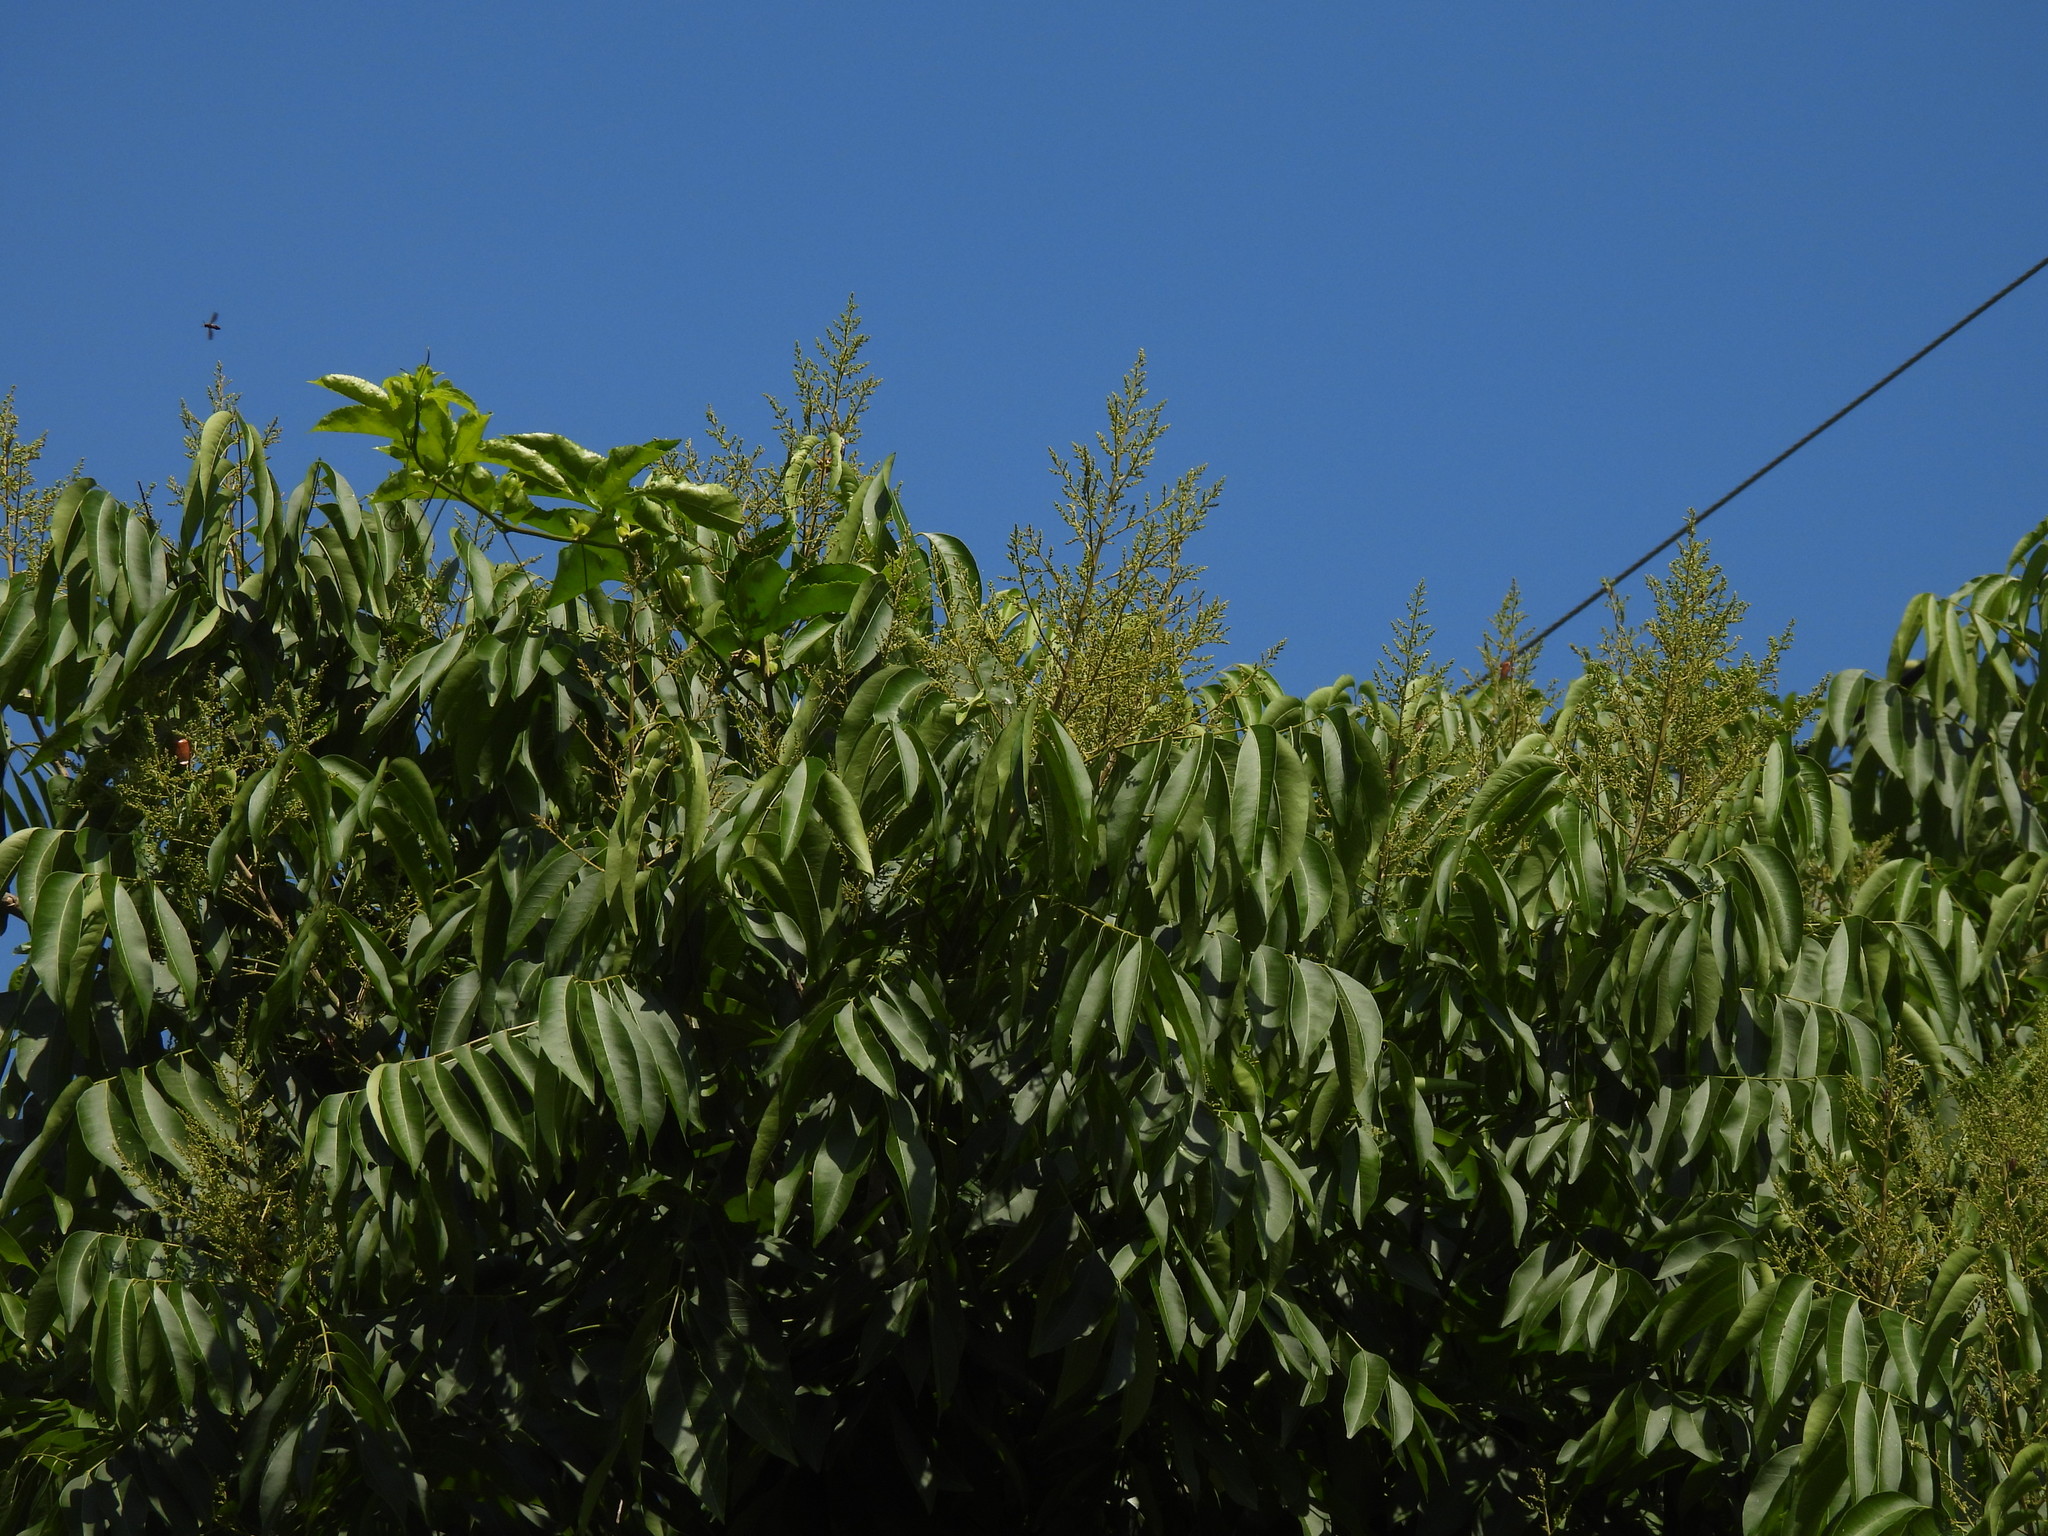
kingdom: Plantae
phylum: Tracheophyta
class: Magnoliopsida
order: Sapindales
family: Sapindaceae
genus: Sapindus
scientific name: Sapindus mukorossi
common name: Chinese soapberry
